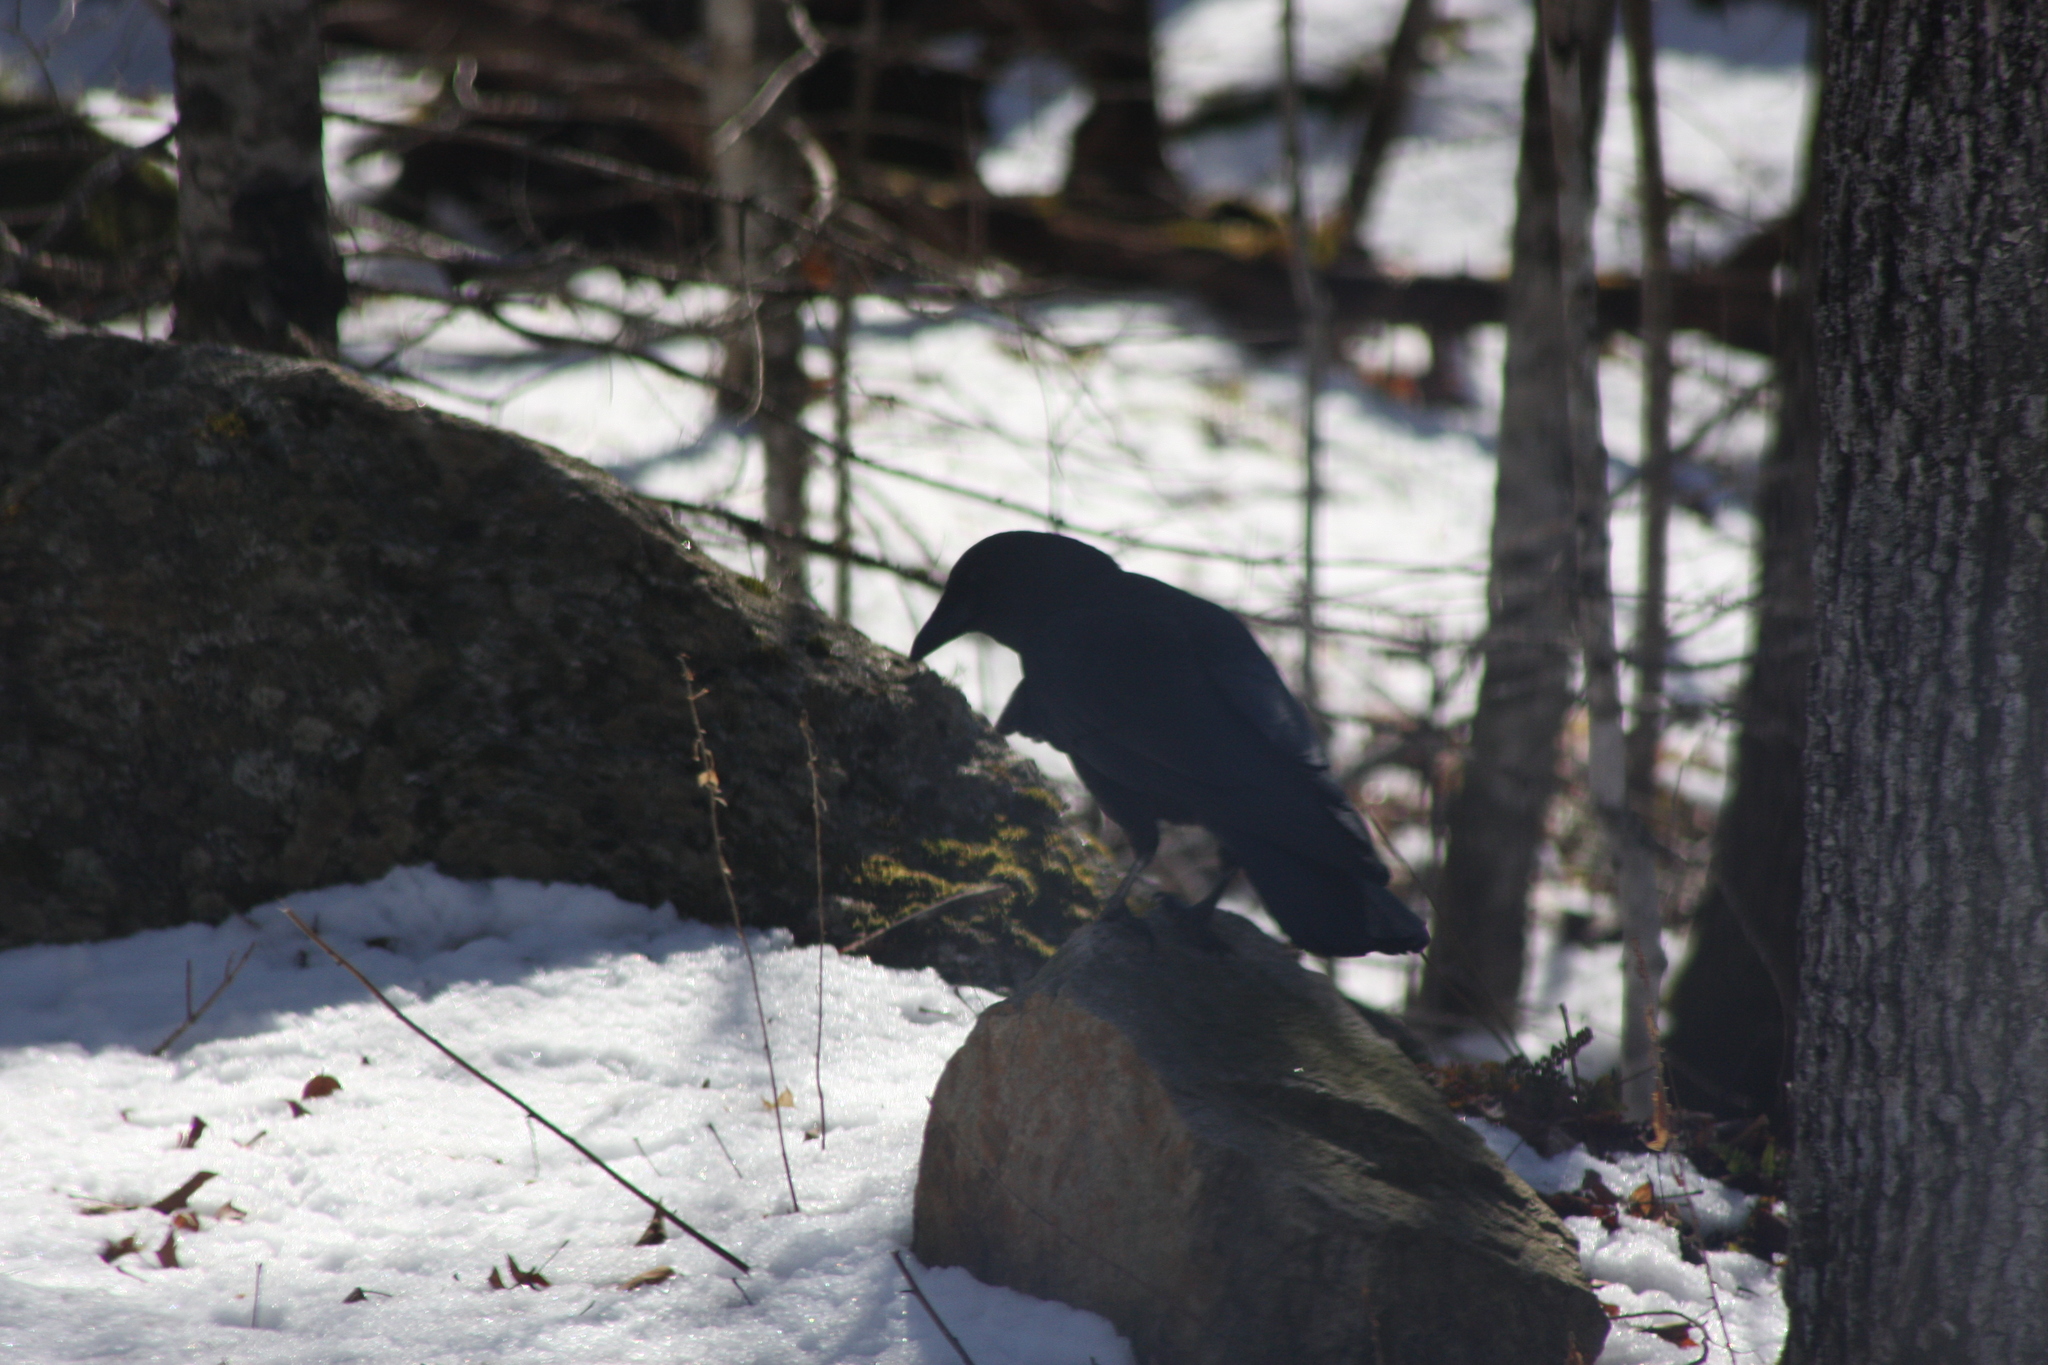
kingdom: Animalia
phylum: Chordata
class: Aves
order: Passeriformes
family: Corvidae
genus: Corvus
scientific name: Corvus brachyrhynchos
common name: American crow
